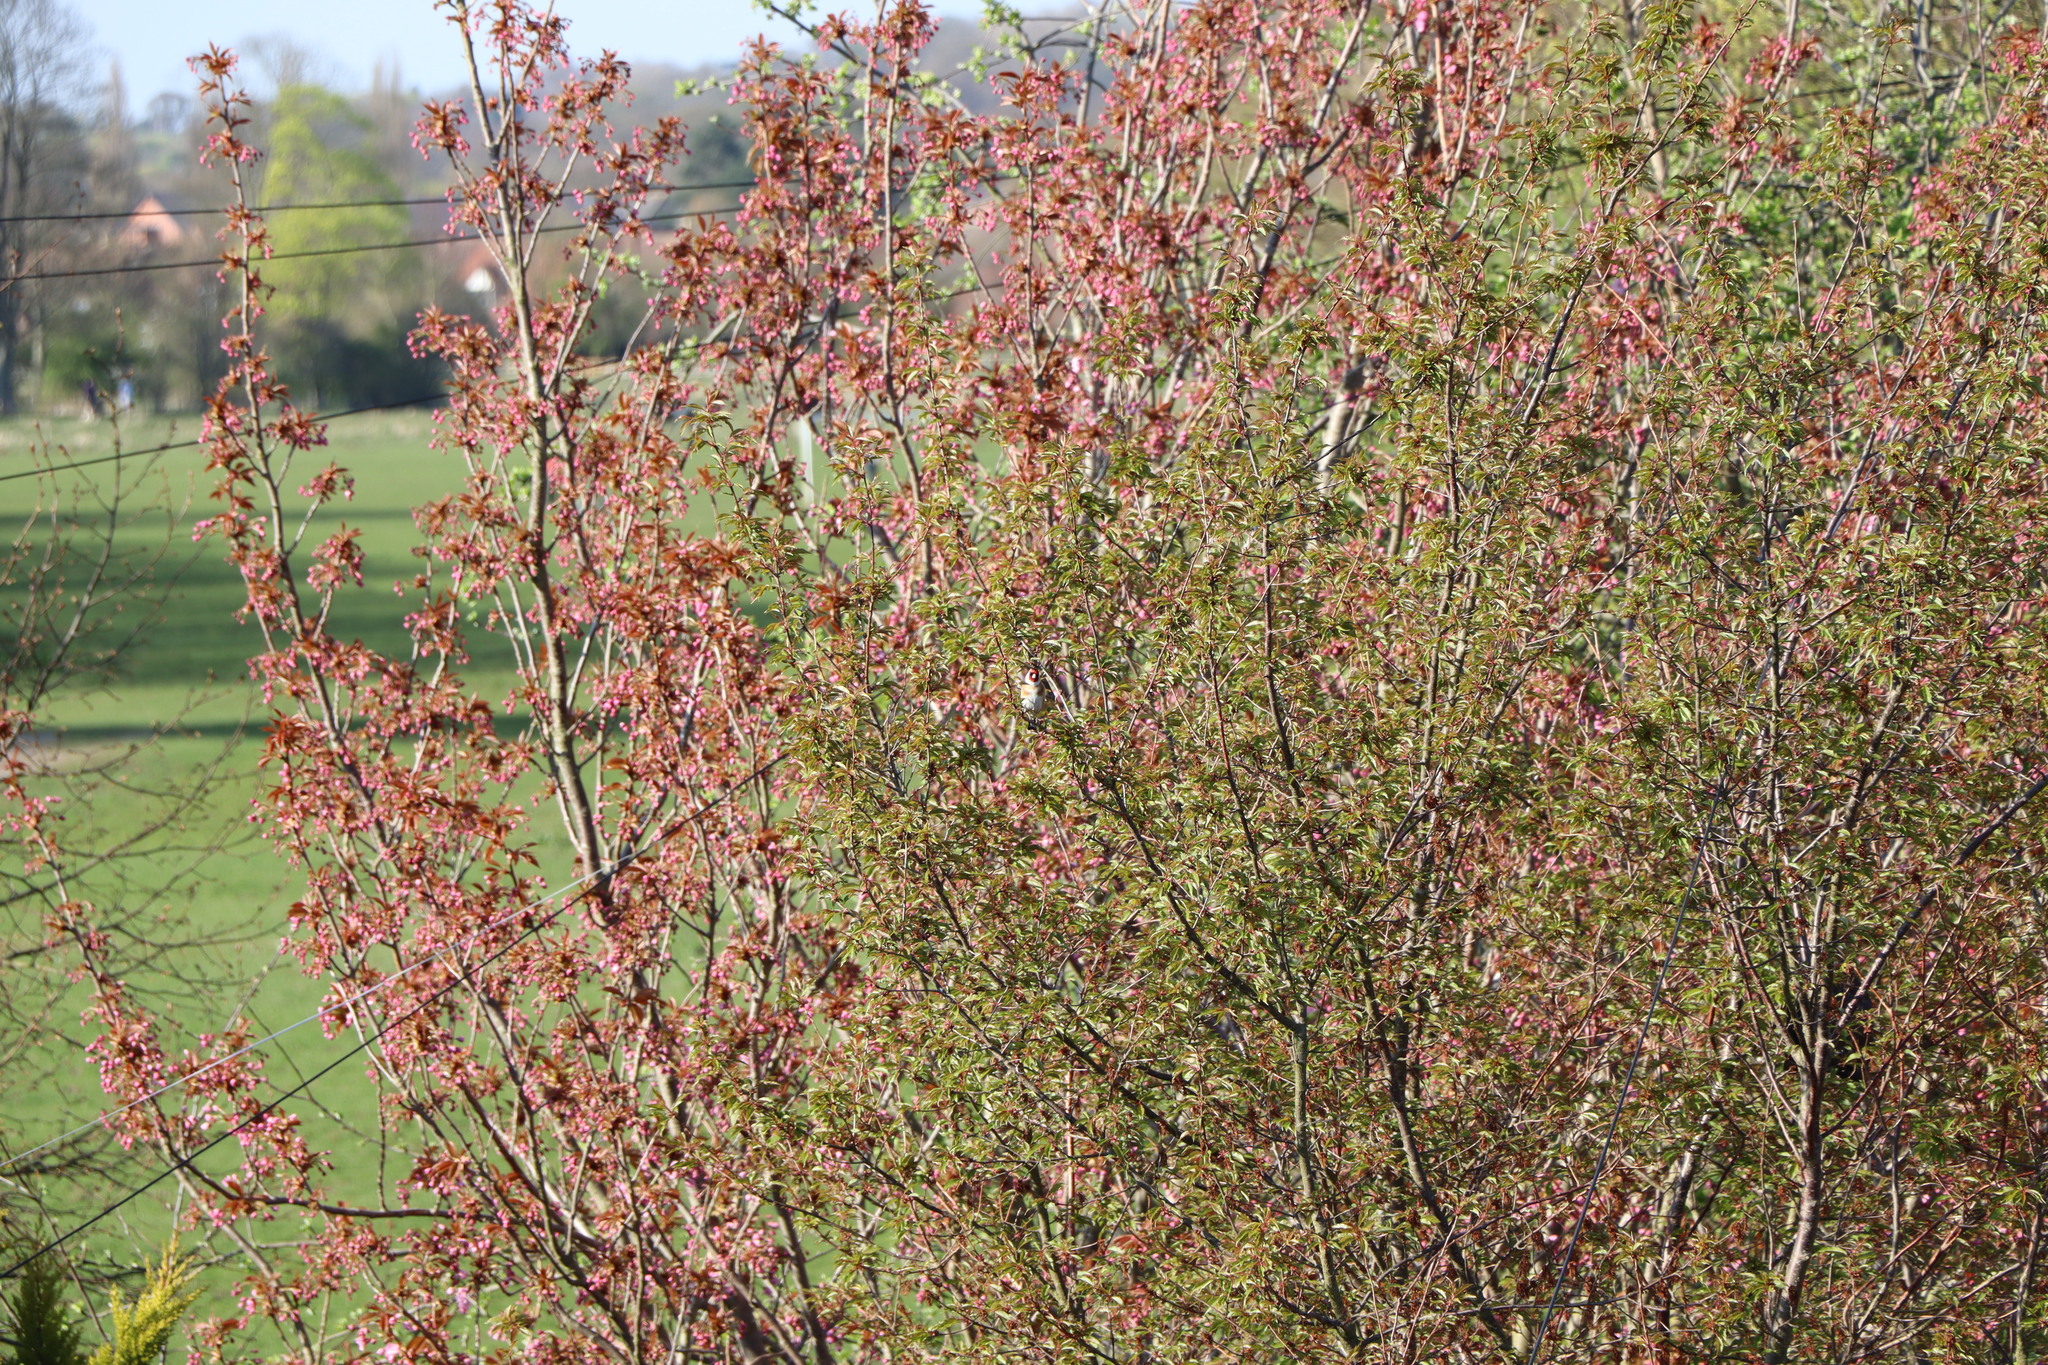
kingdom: Animalia
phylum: Chordata
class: Aves
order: Passeriformes
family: Fringillidae
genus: Carduelis
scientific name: Carduelis carduelis
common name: European goldfinch
